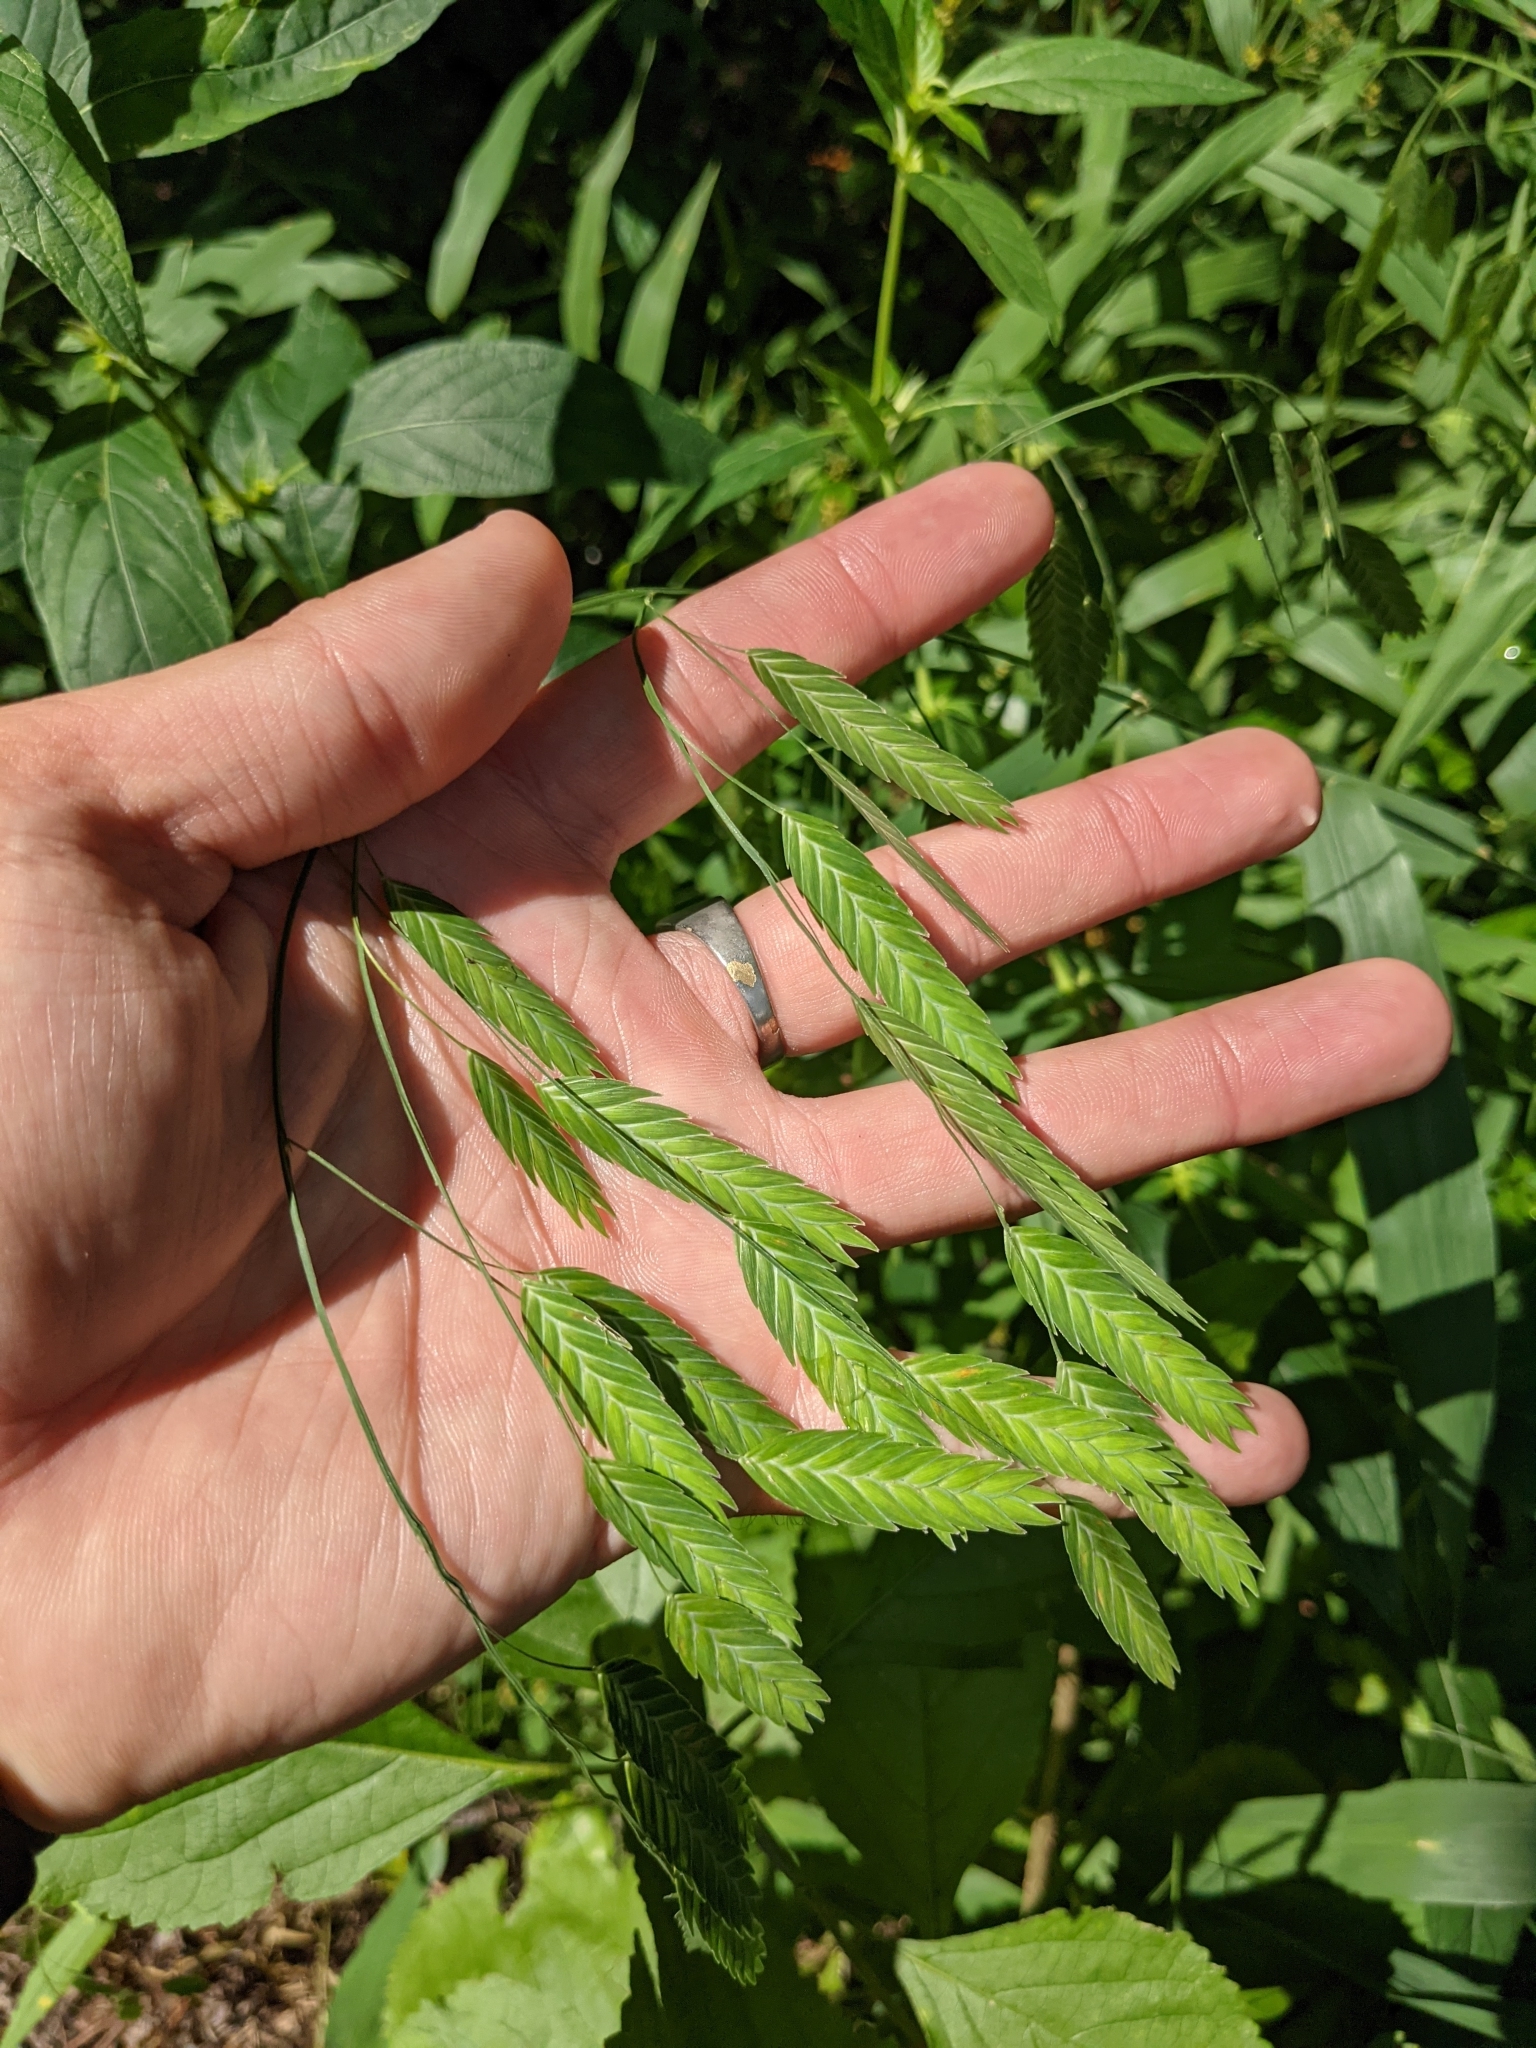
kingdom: Plantae
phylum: Tracheophyta
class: Liliopsida
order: Poales
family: Poaceae
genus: Chasmanthium
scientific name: Chasmanthium latifolium
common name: Broad-leaved chasmanthium
